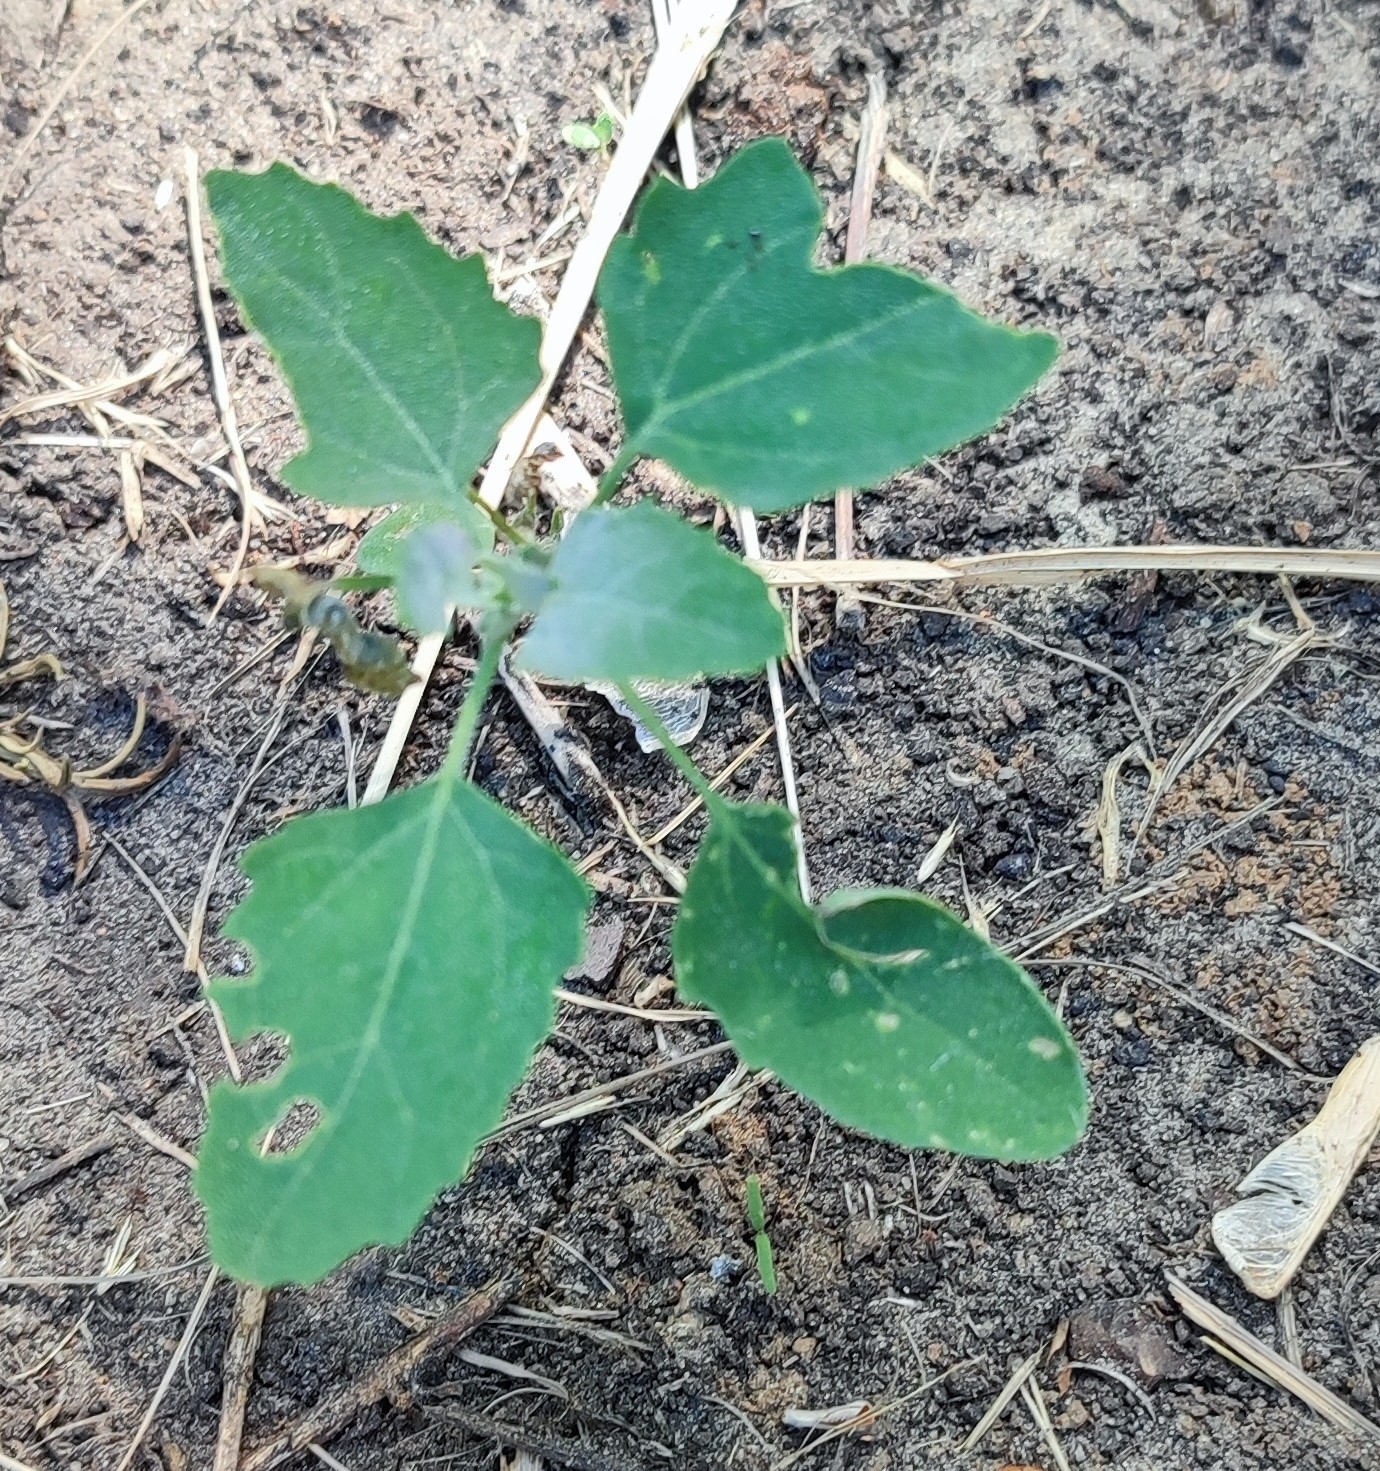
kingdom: Plantae
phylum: Tracheophyta
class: Magnoliopsida
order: Caryophyllales
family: Amaranthaceae
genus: Chenopodium
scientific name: Chenopodium album
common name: Fat-hen
